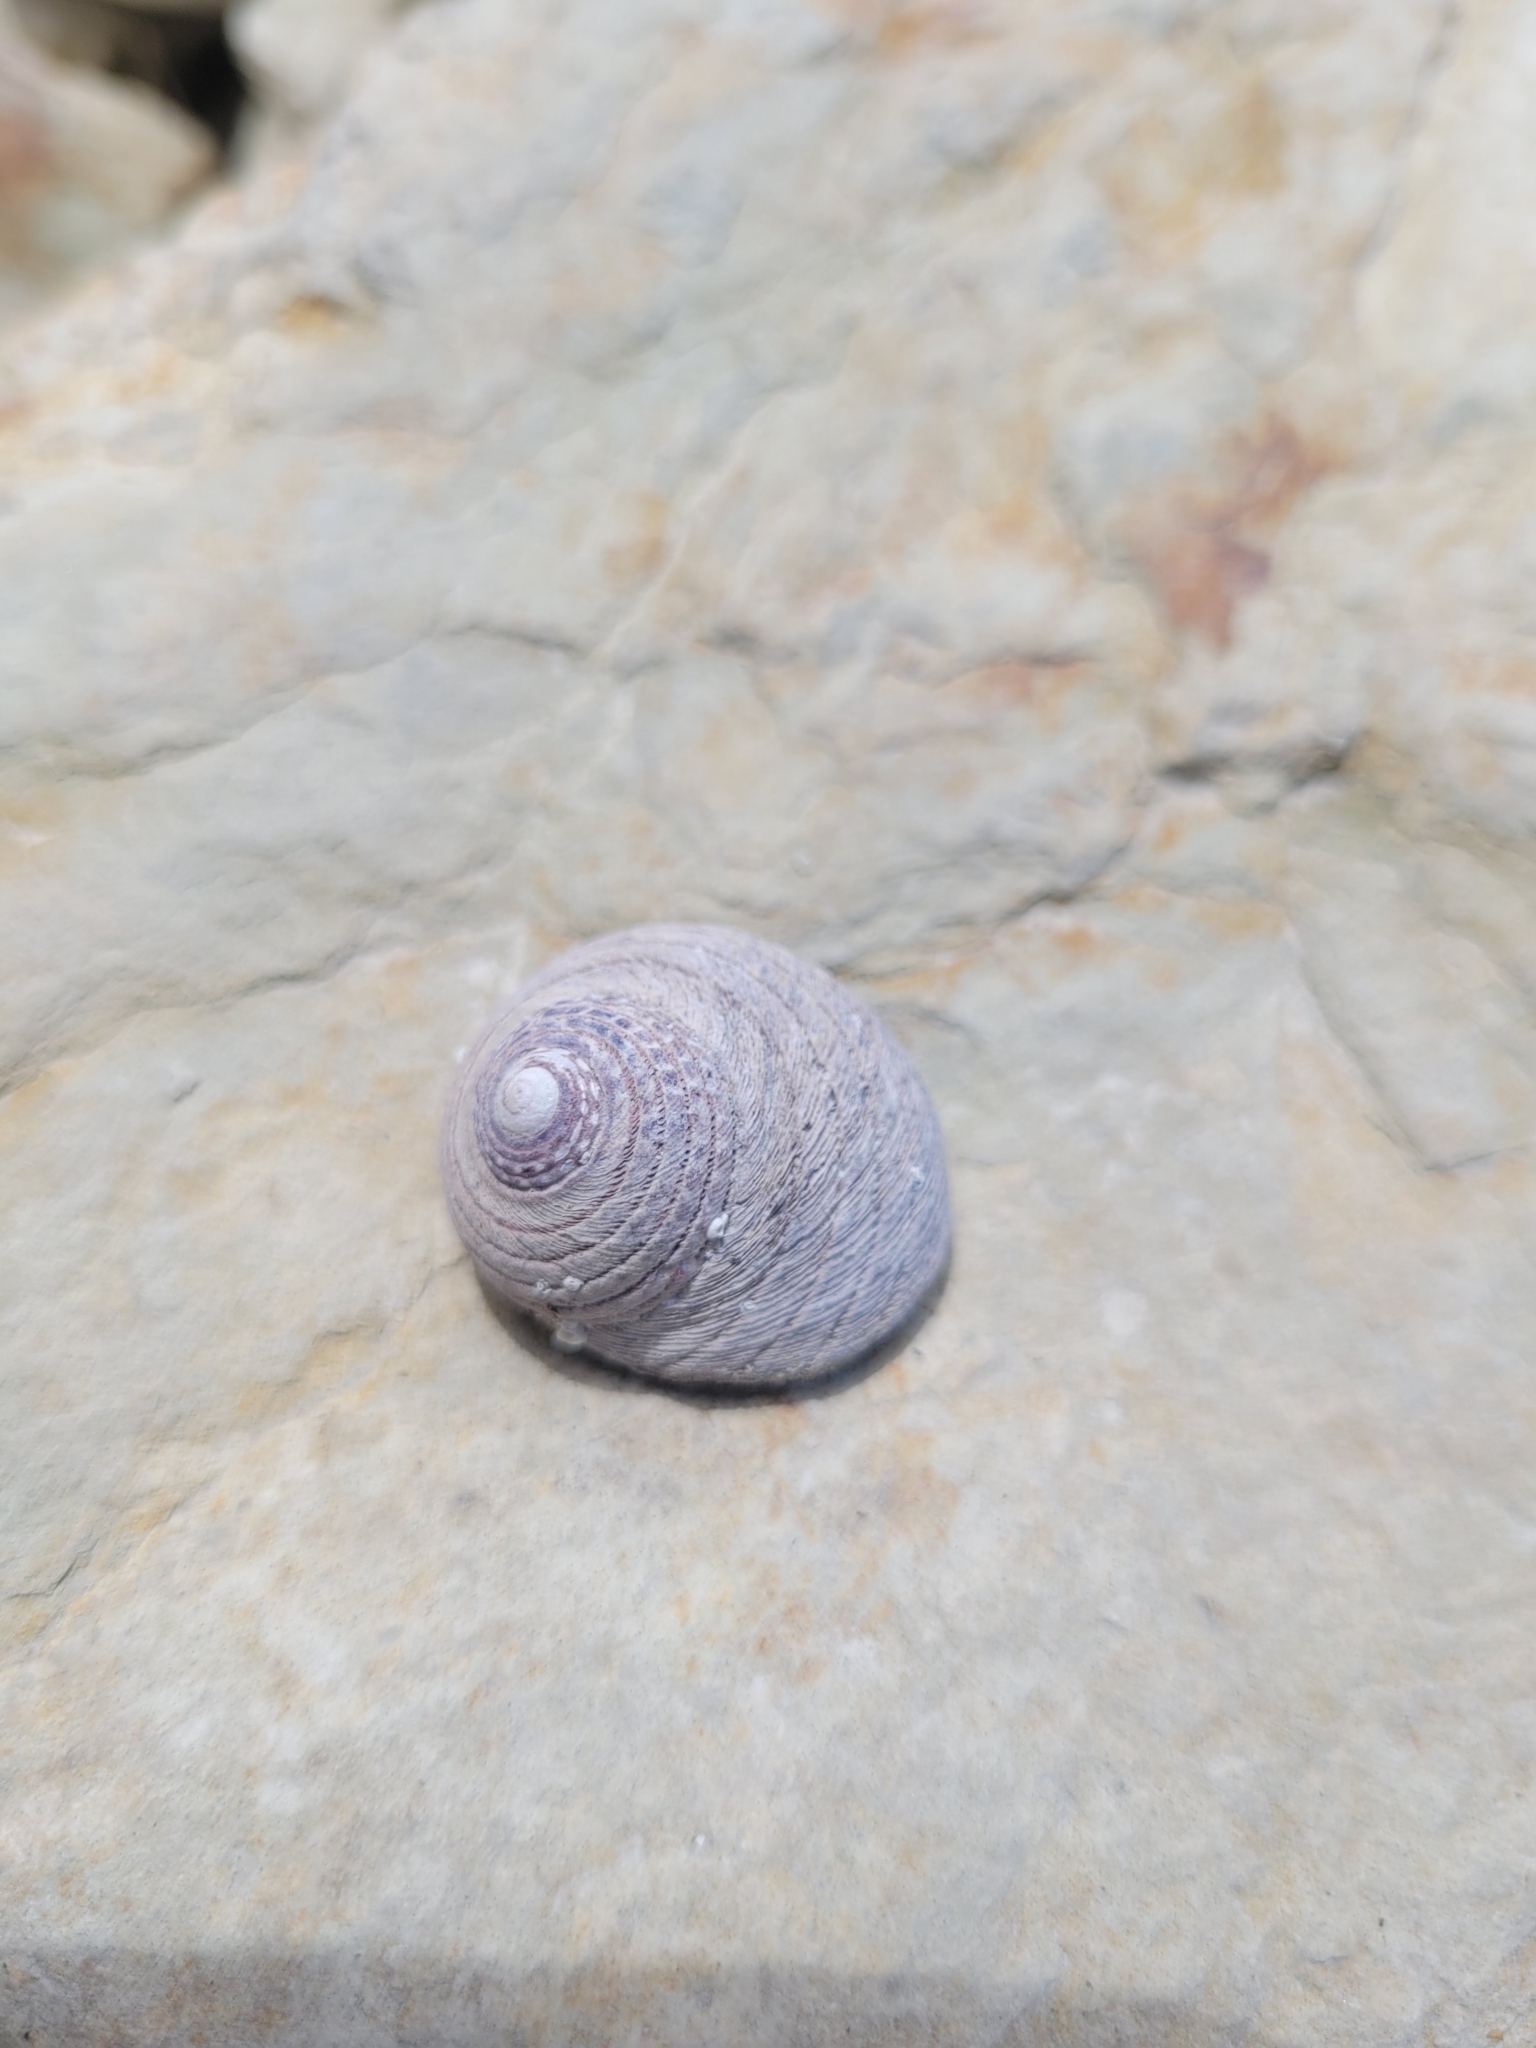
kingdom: Animalia
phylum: Mollusca
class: Gastropoda
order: Trochida
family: Trochidae
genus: Diloma
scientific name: Diloma aethiops
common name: Scorched monodont
